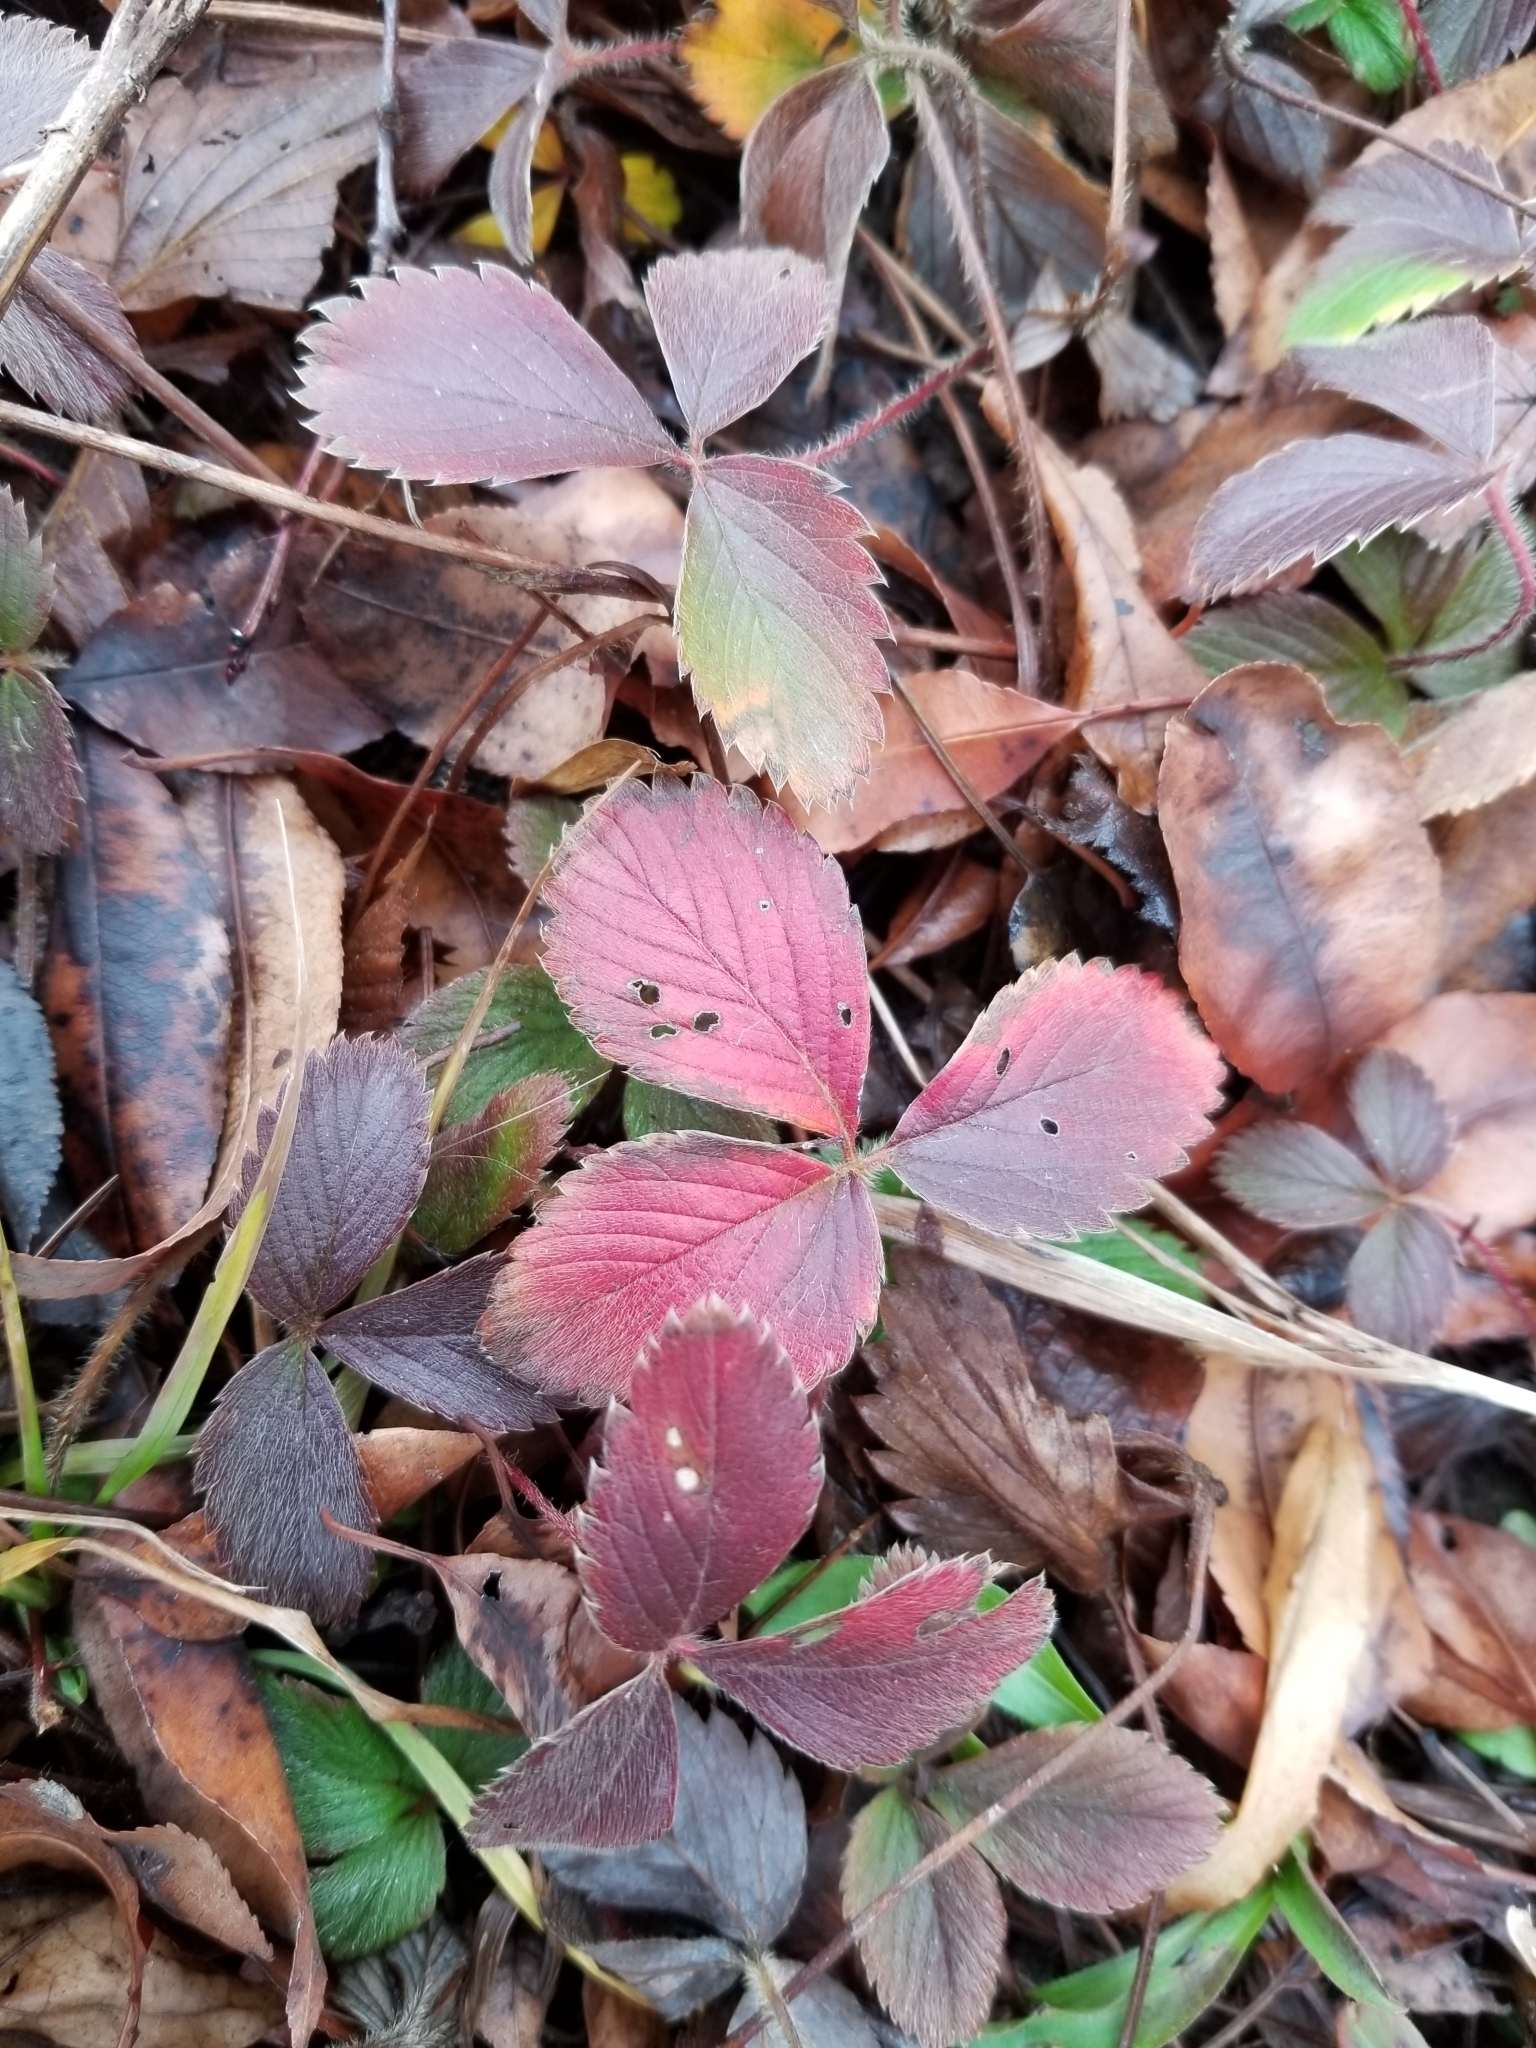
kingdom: Plantae
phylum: Tracheophyta
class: Magnoliopsida
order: Rosales
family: Rosaceae
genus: Fragaria
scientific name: Fragaria virginiana
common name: Thickleaved wild strawberry
